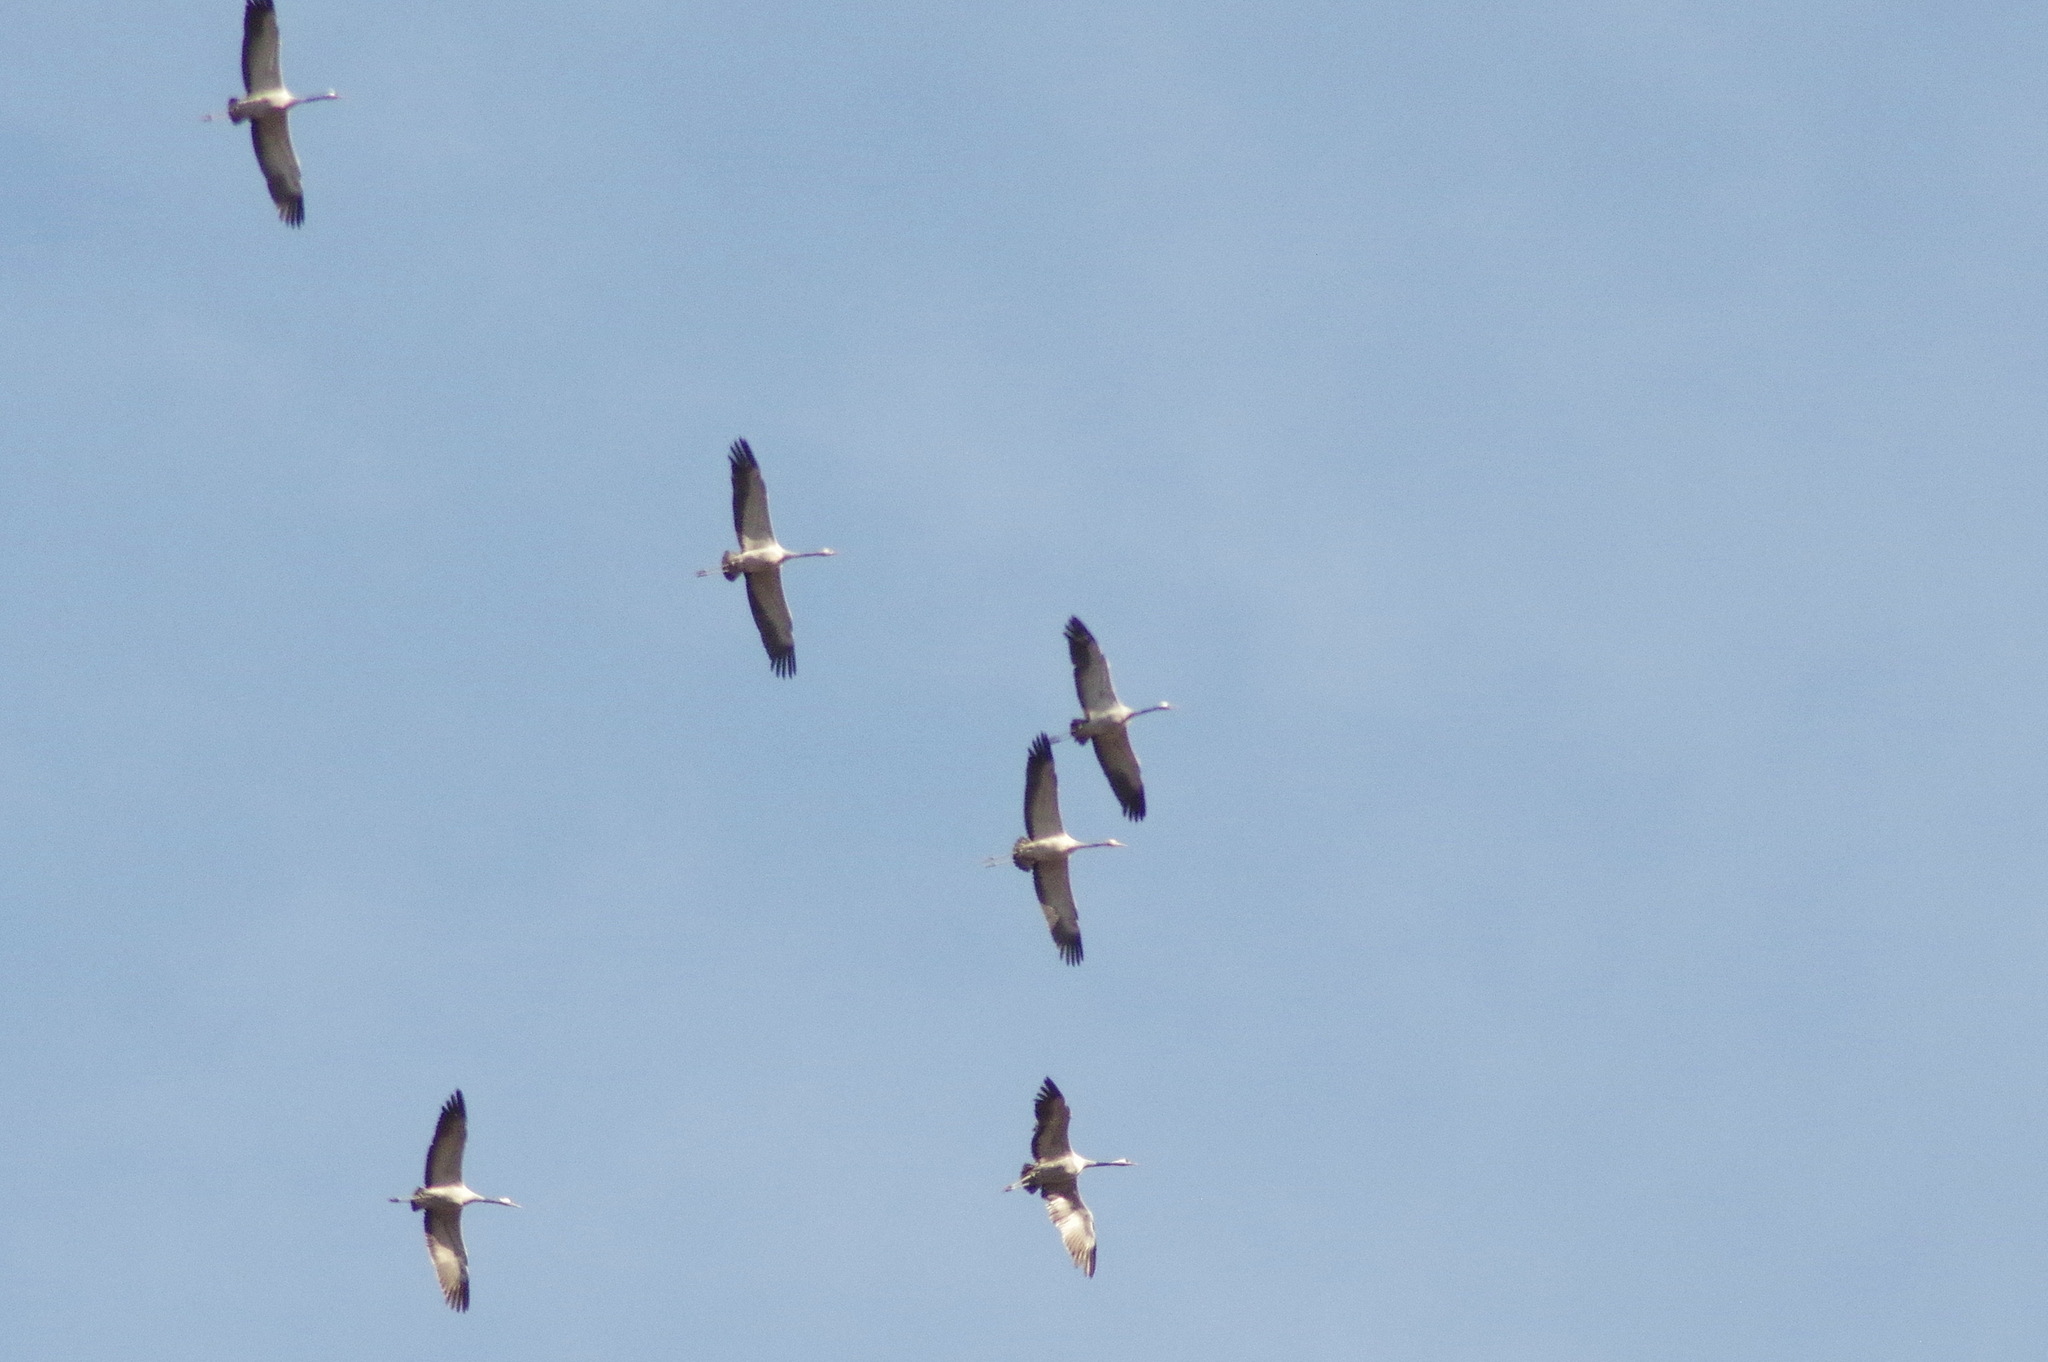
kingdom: Animalia
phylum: Chordata
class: Aves
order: Gruiformes
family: Gruidae
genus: Grus
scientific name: Grus grus
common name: Common crane
